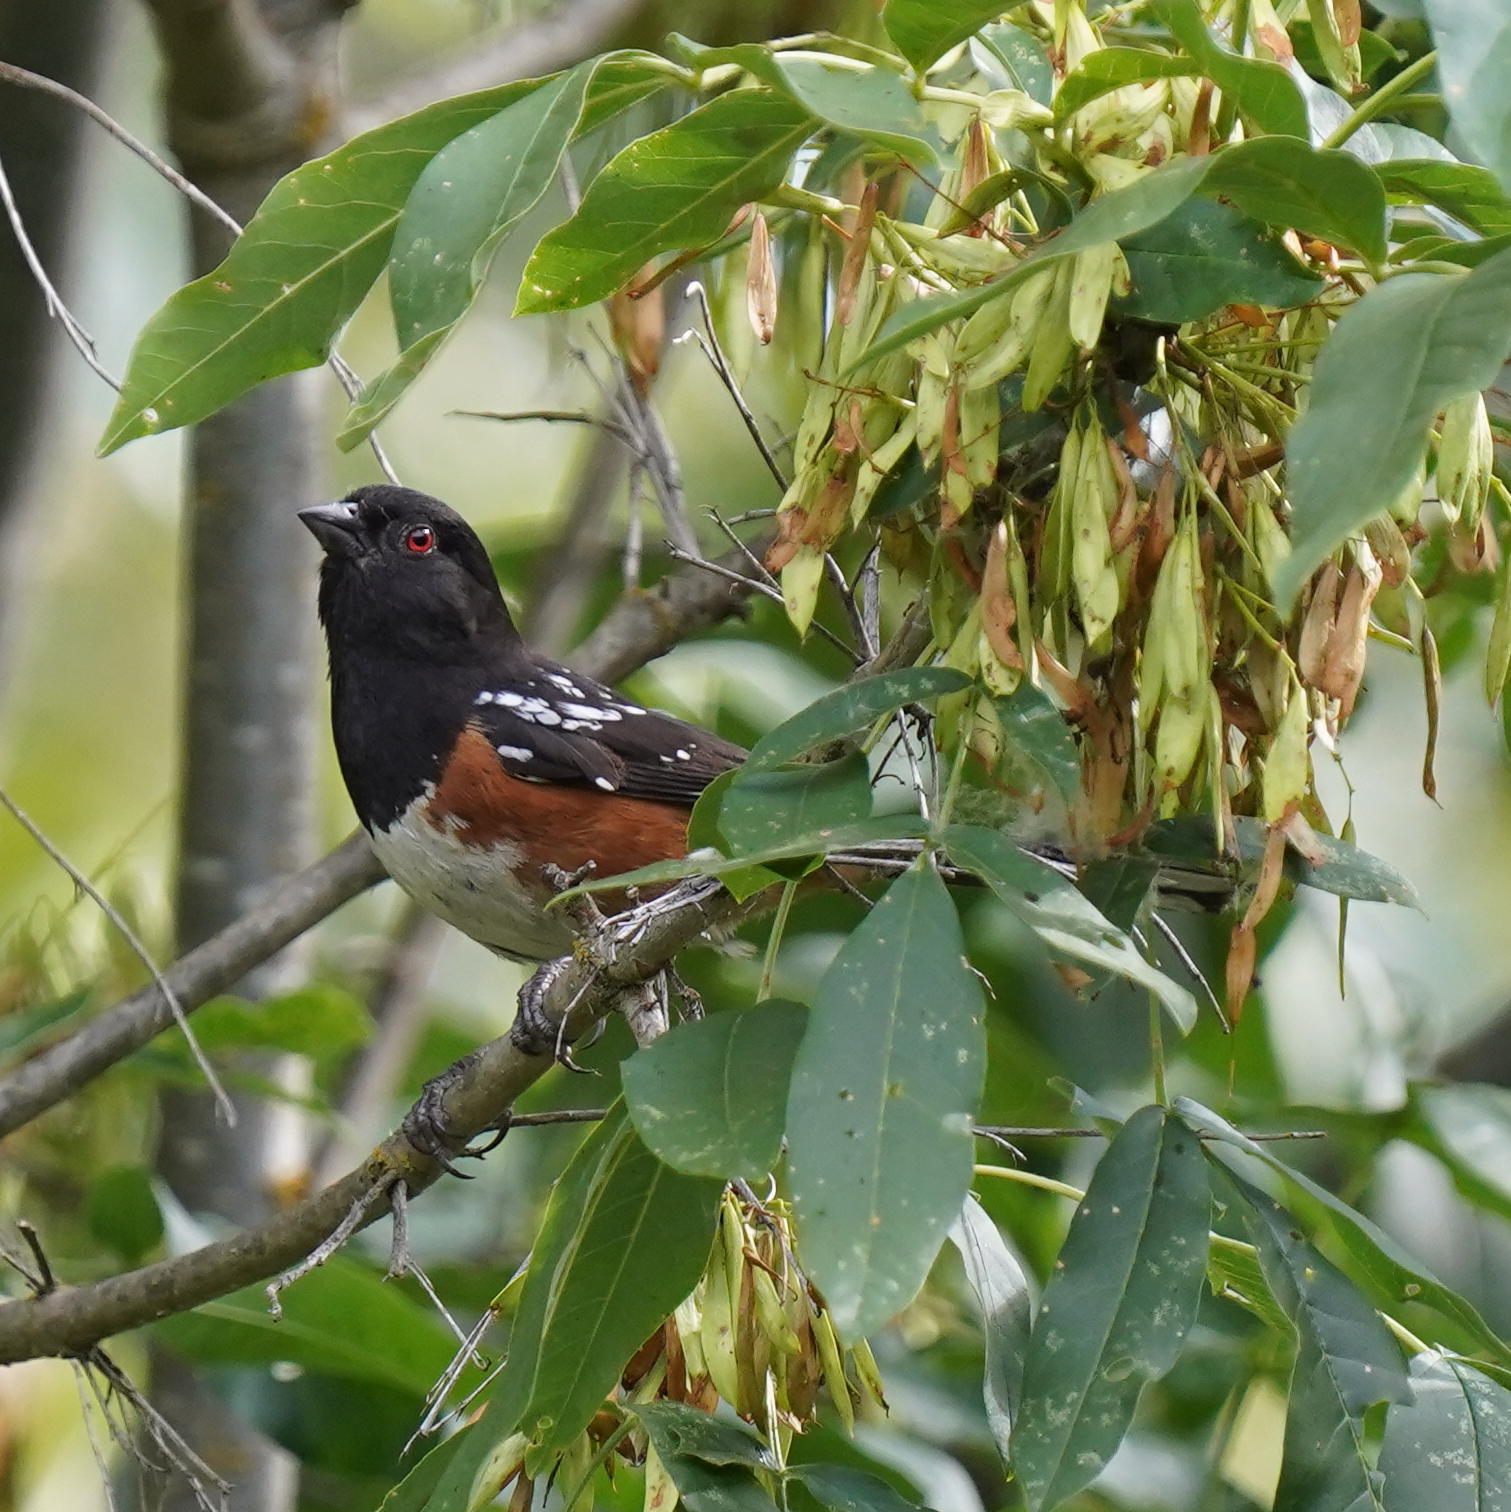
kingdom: Animalia
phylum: Chordata
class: Aves
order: Passeriformes
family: Passerellidae
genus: Pipilo
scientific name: Pipilo maculatus
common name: Spotted towhee
